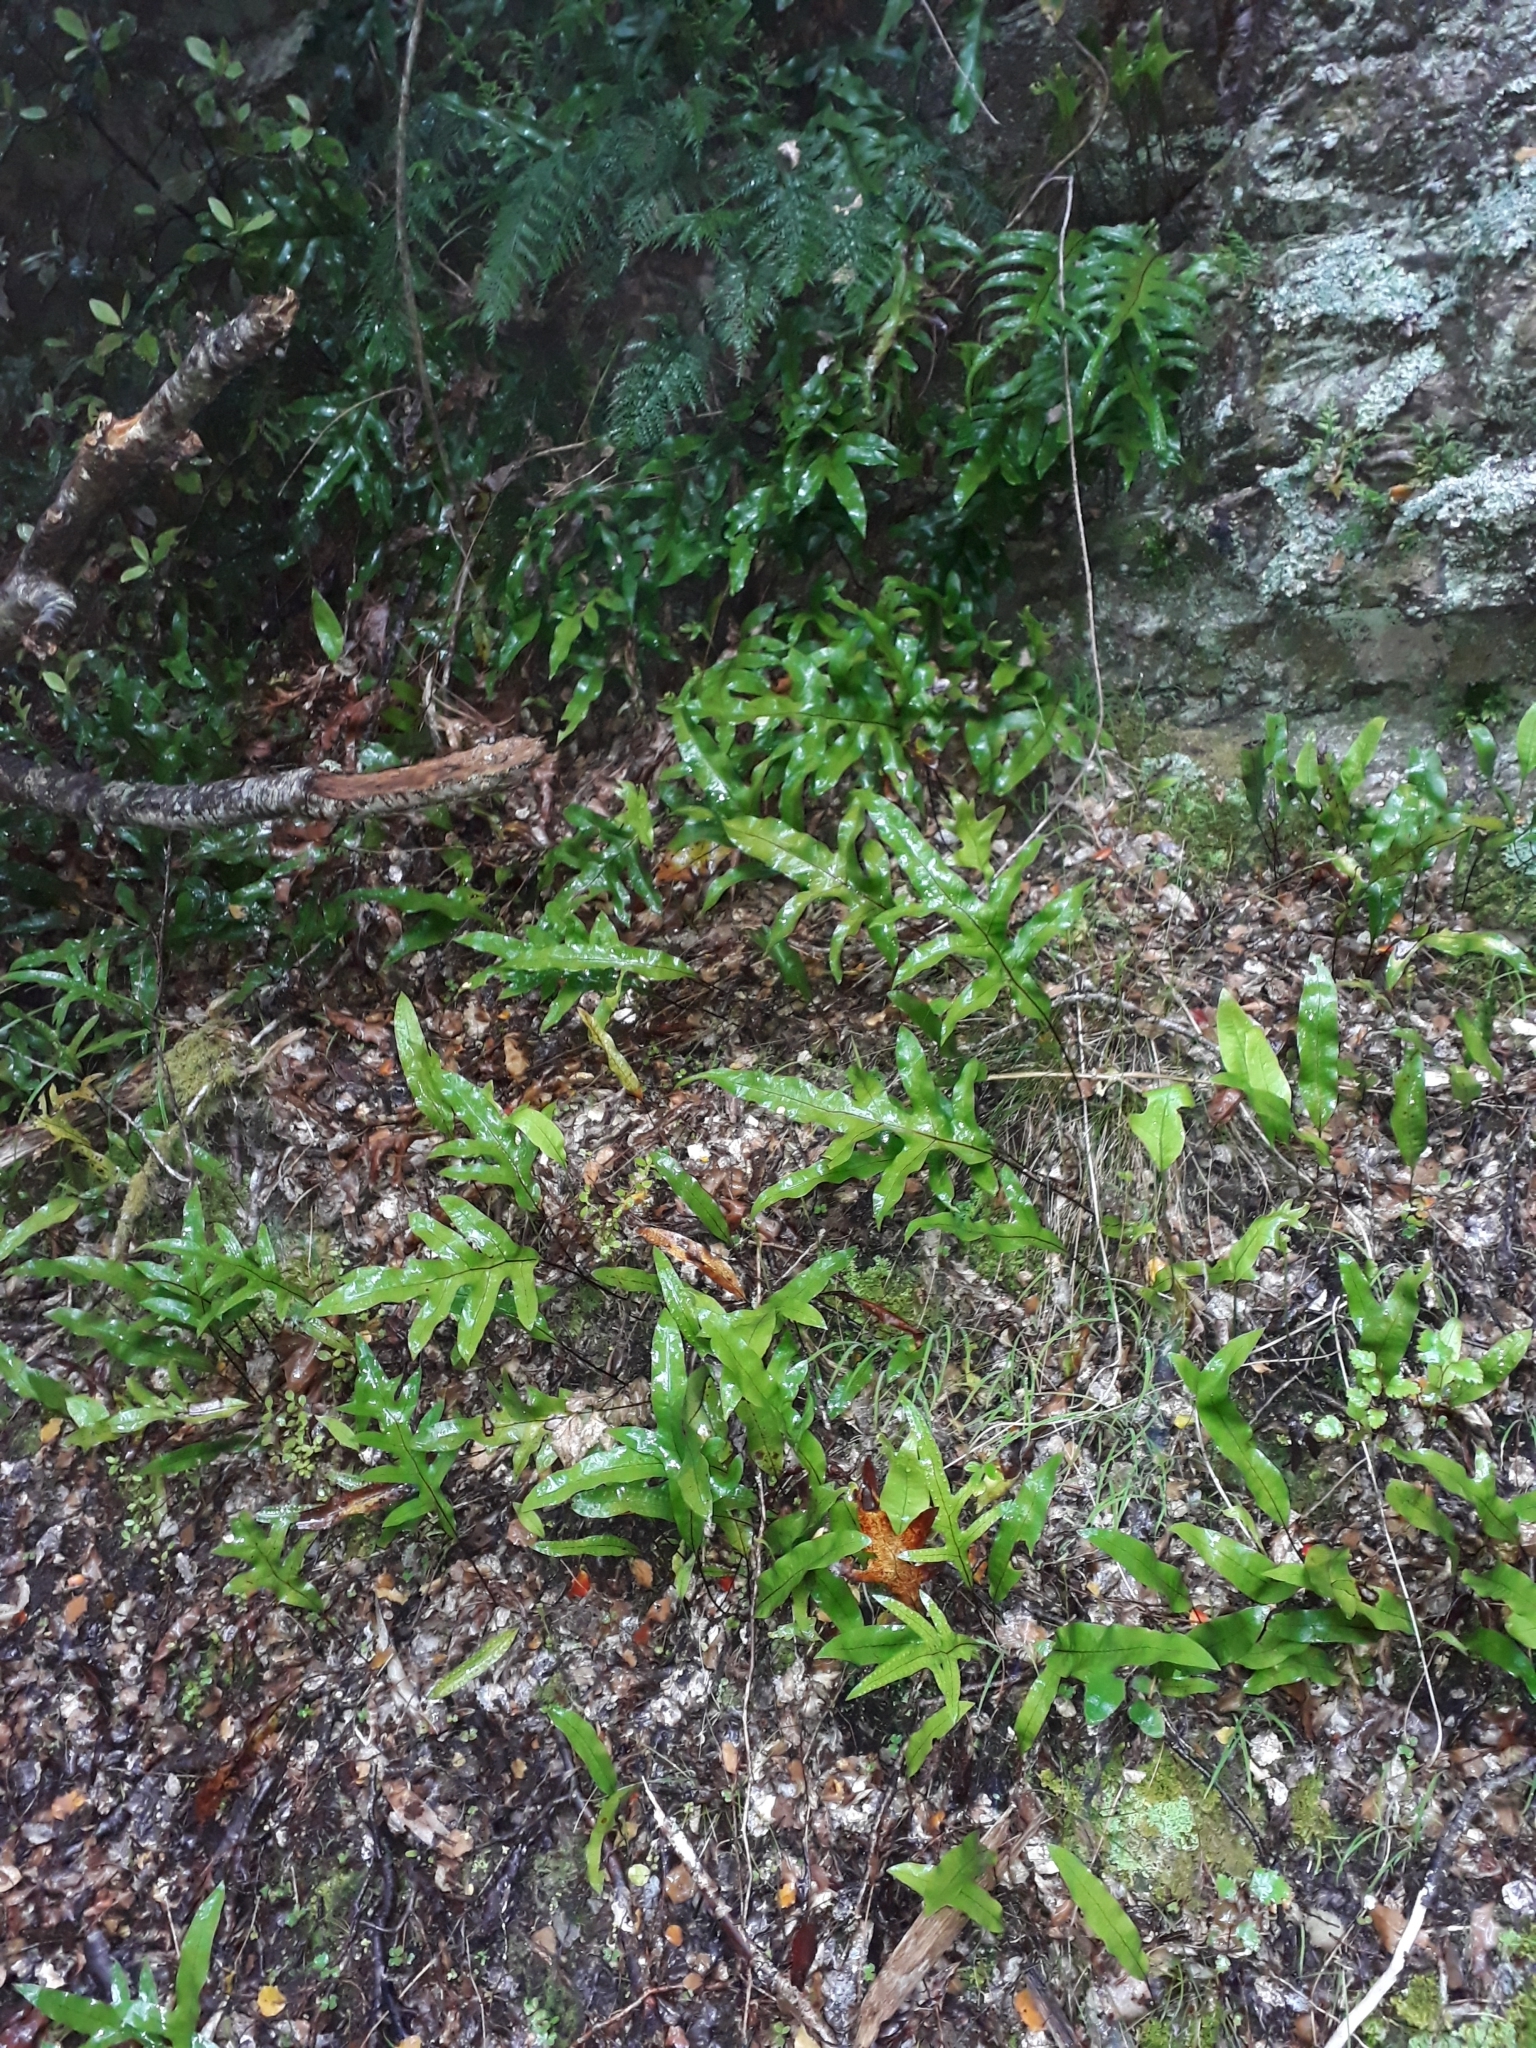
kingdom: Plantae
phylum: Tracheophyta
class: Polypodiopsida
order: Polypodiales
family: Polypodiaceae
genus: Lecanopteris
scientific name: Lecanopteris pustulata
